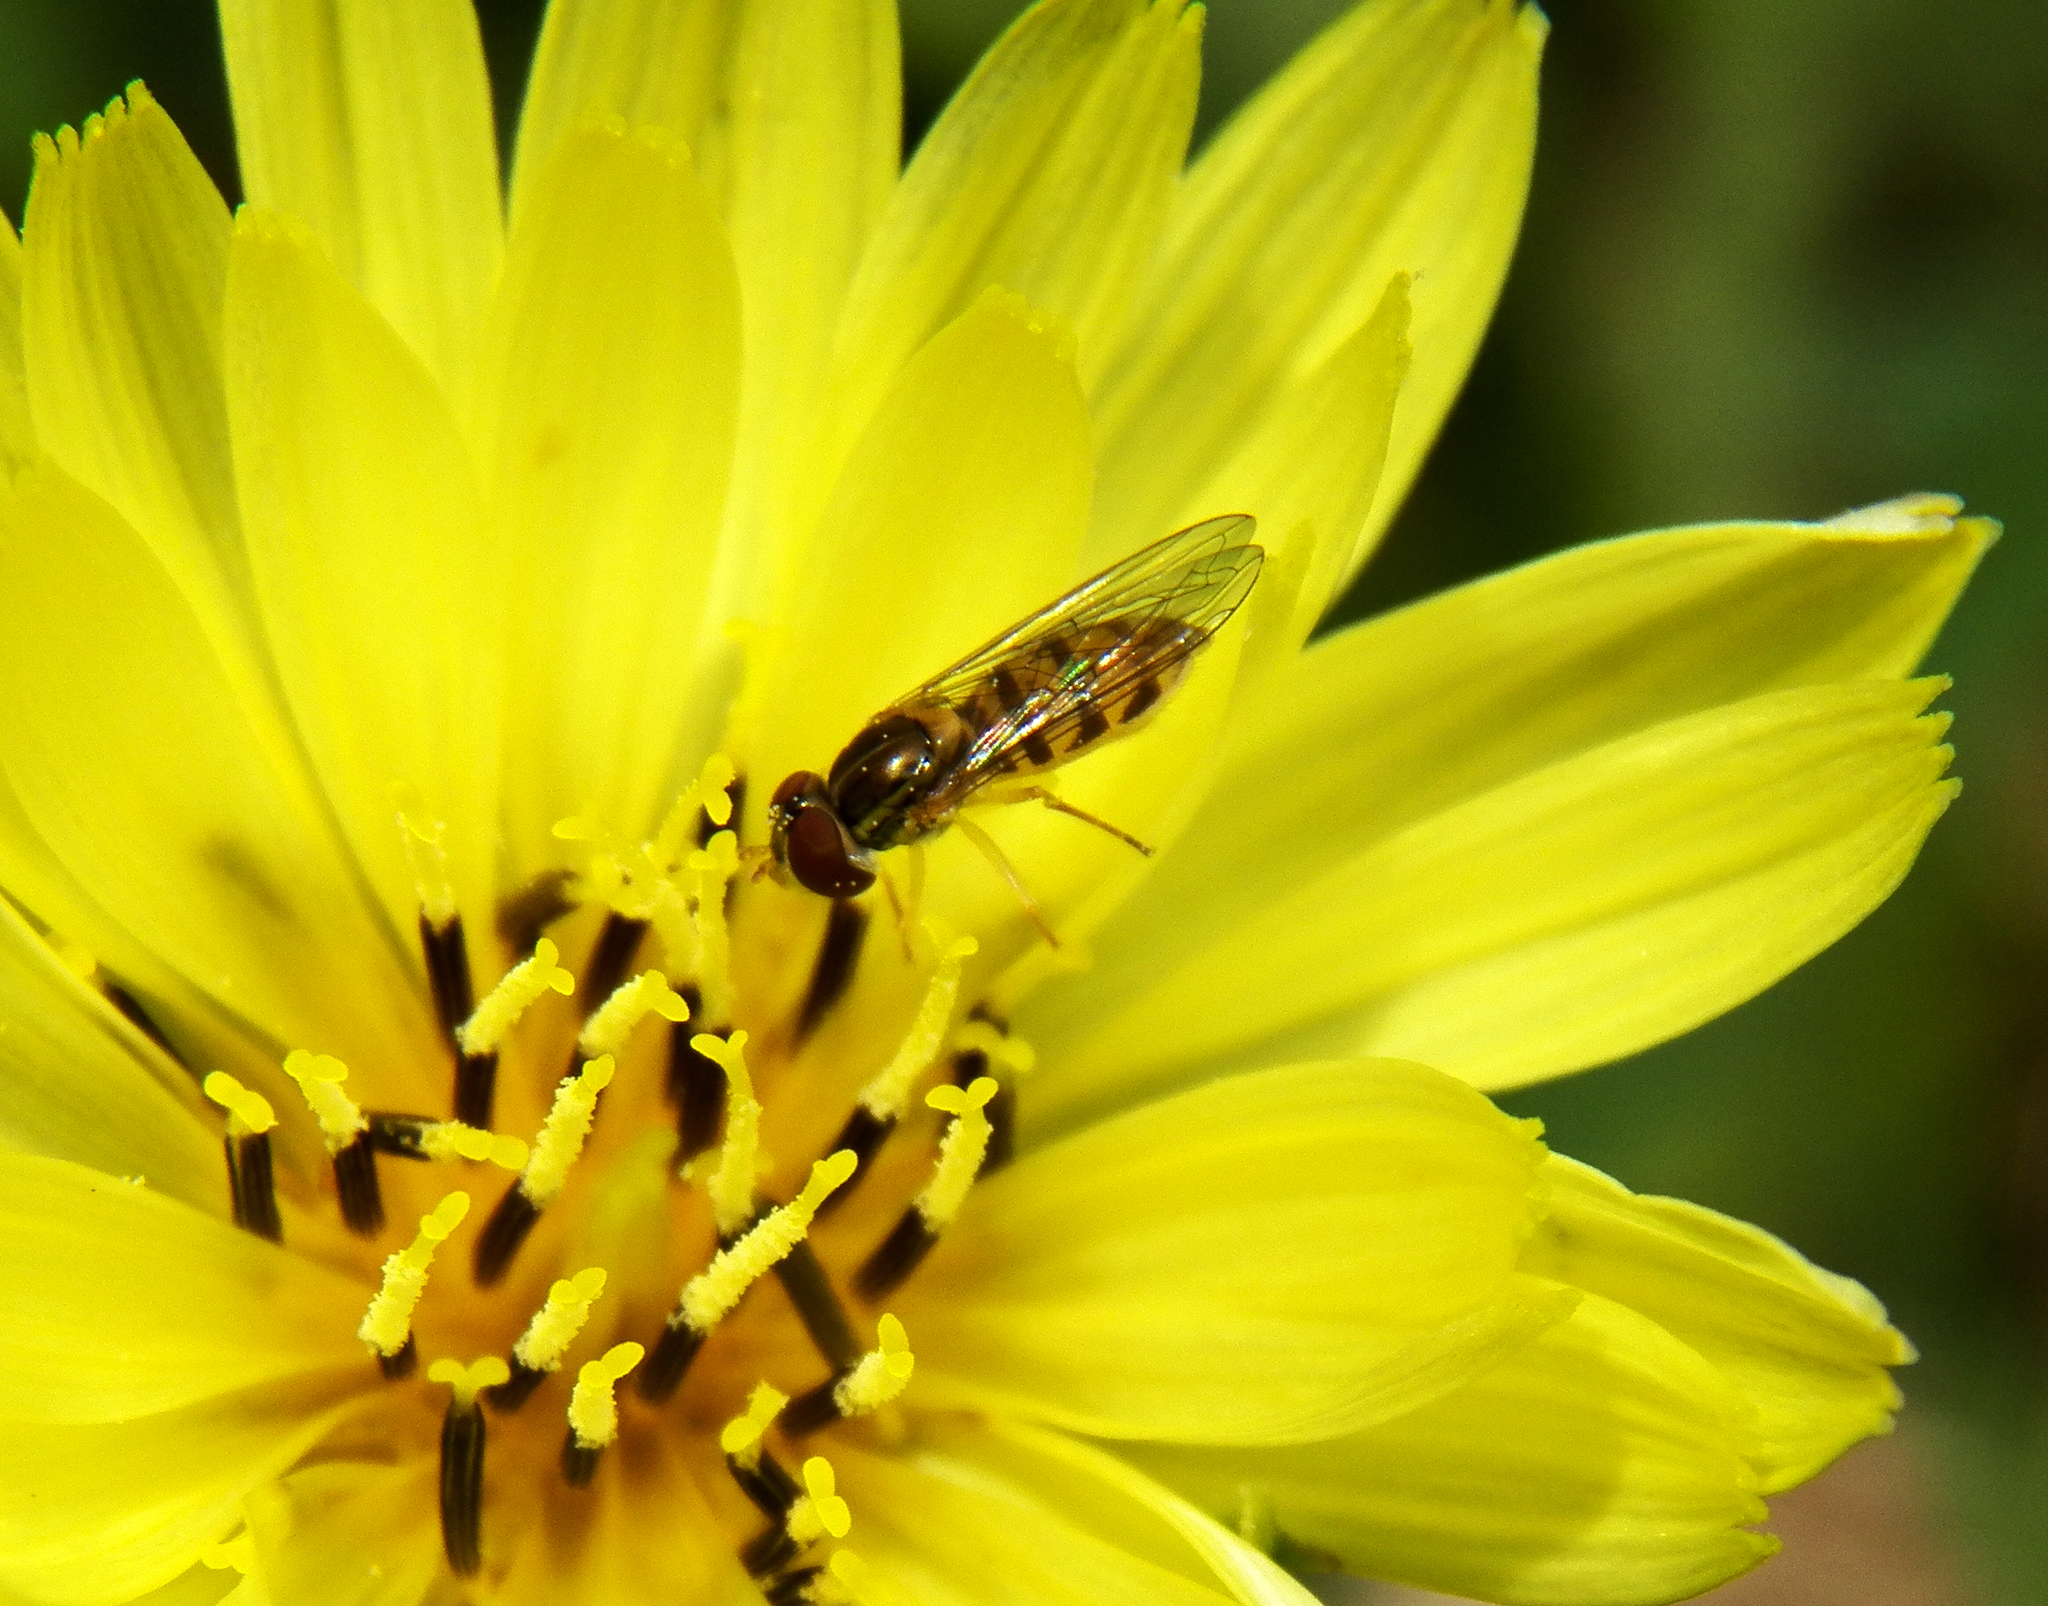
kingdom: Animalia
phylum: Arthropoda
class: Insecta
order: Diptera
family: Syrphidae
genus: Toxomerus
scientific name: Toxomerus marginatus
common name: Syrphid fly
